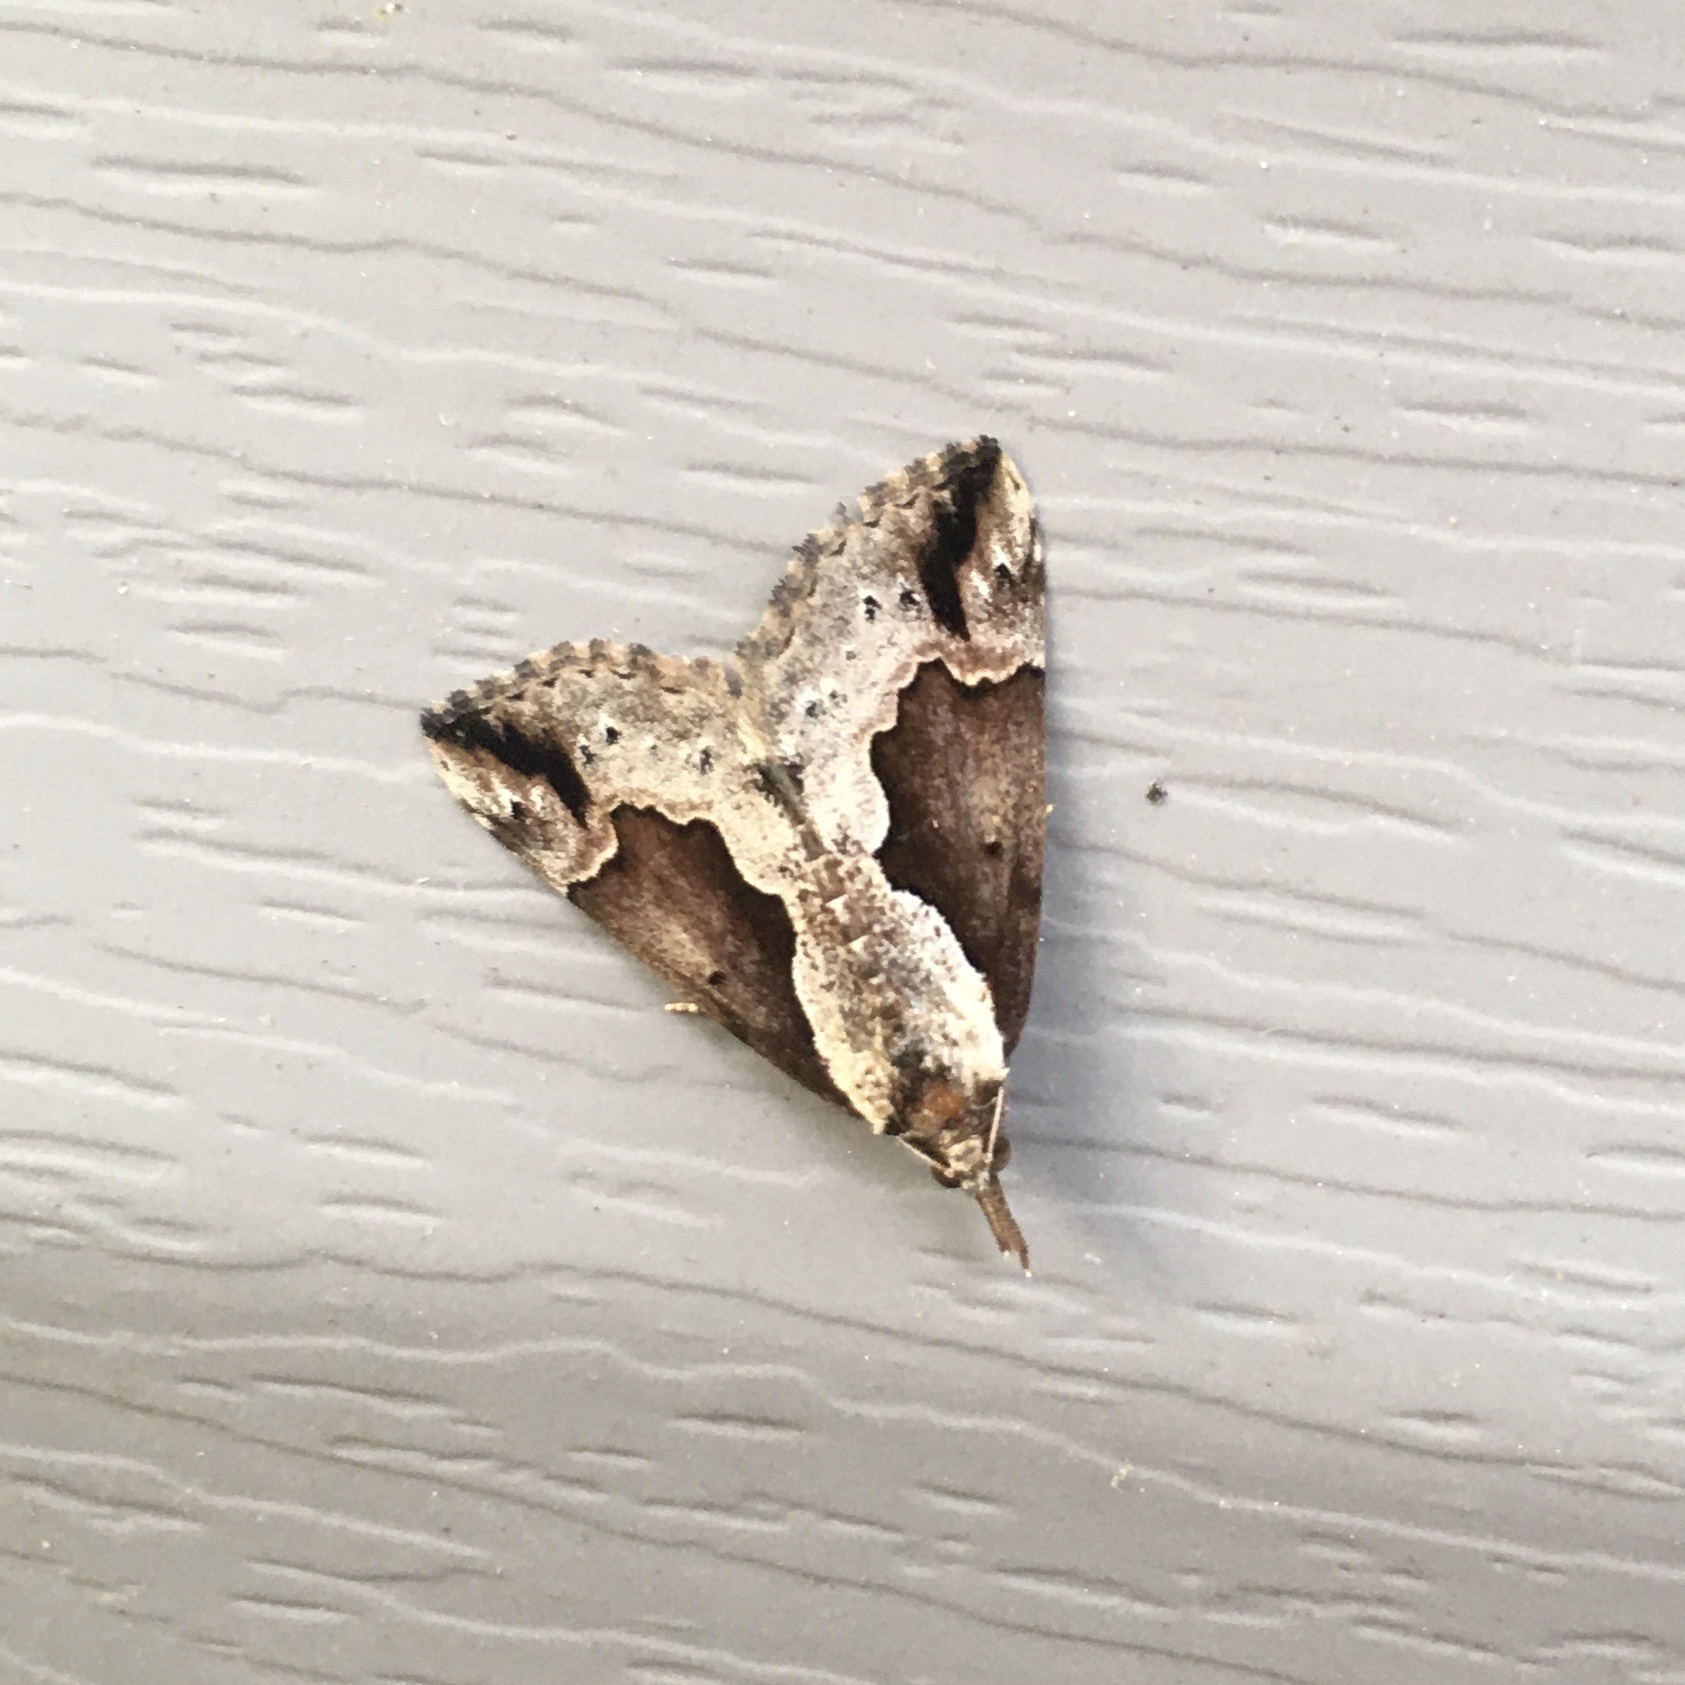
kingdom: Animalia
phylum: Arthropoda
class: Insecta
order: Lepidoptera
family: Erebidae
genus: Hypena
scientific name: Hypena baltimoralis
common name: Baltimore snout
